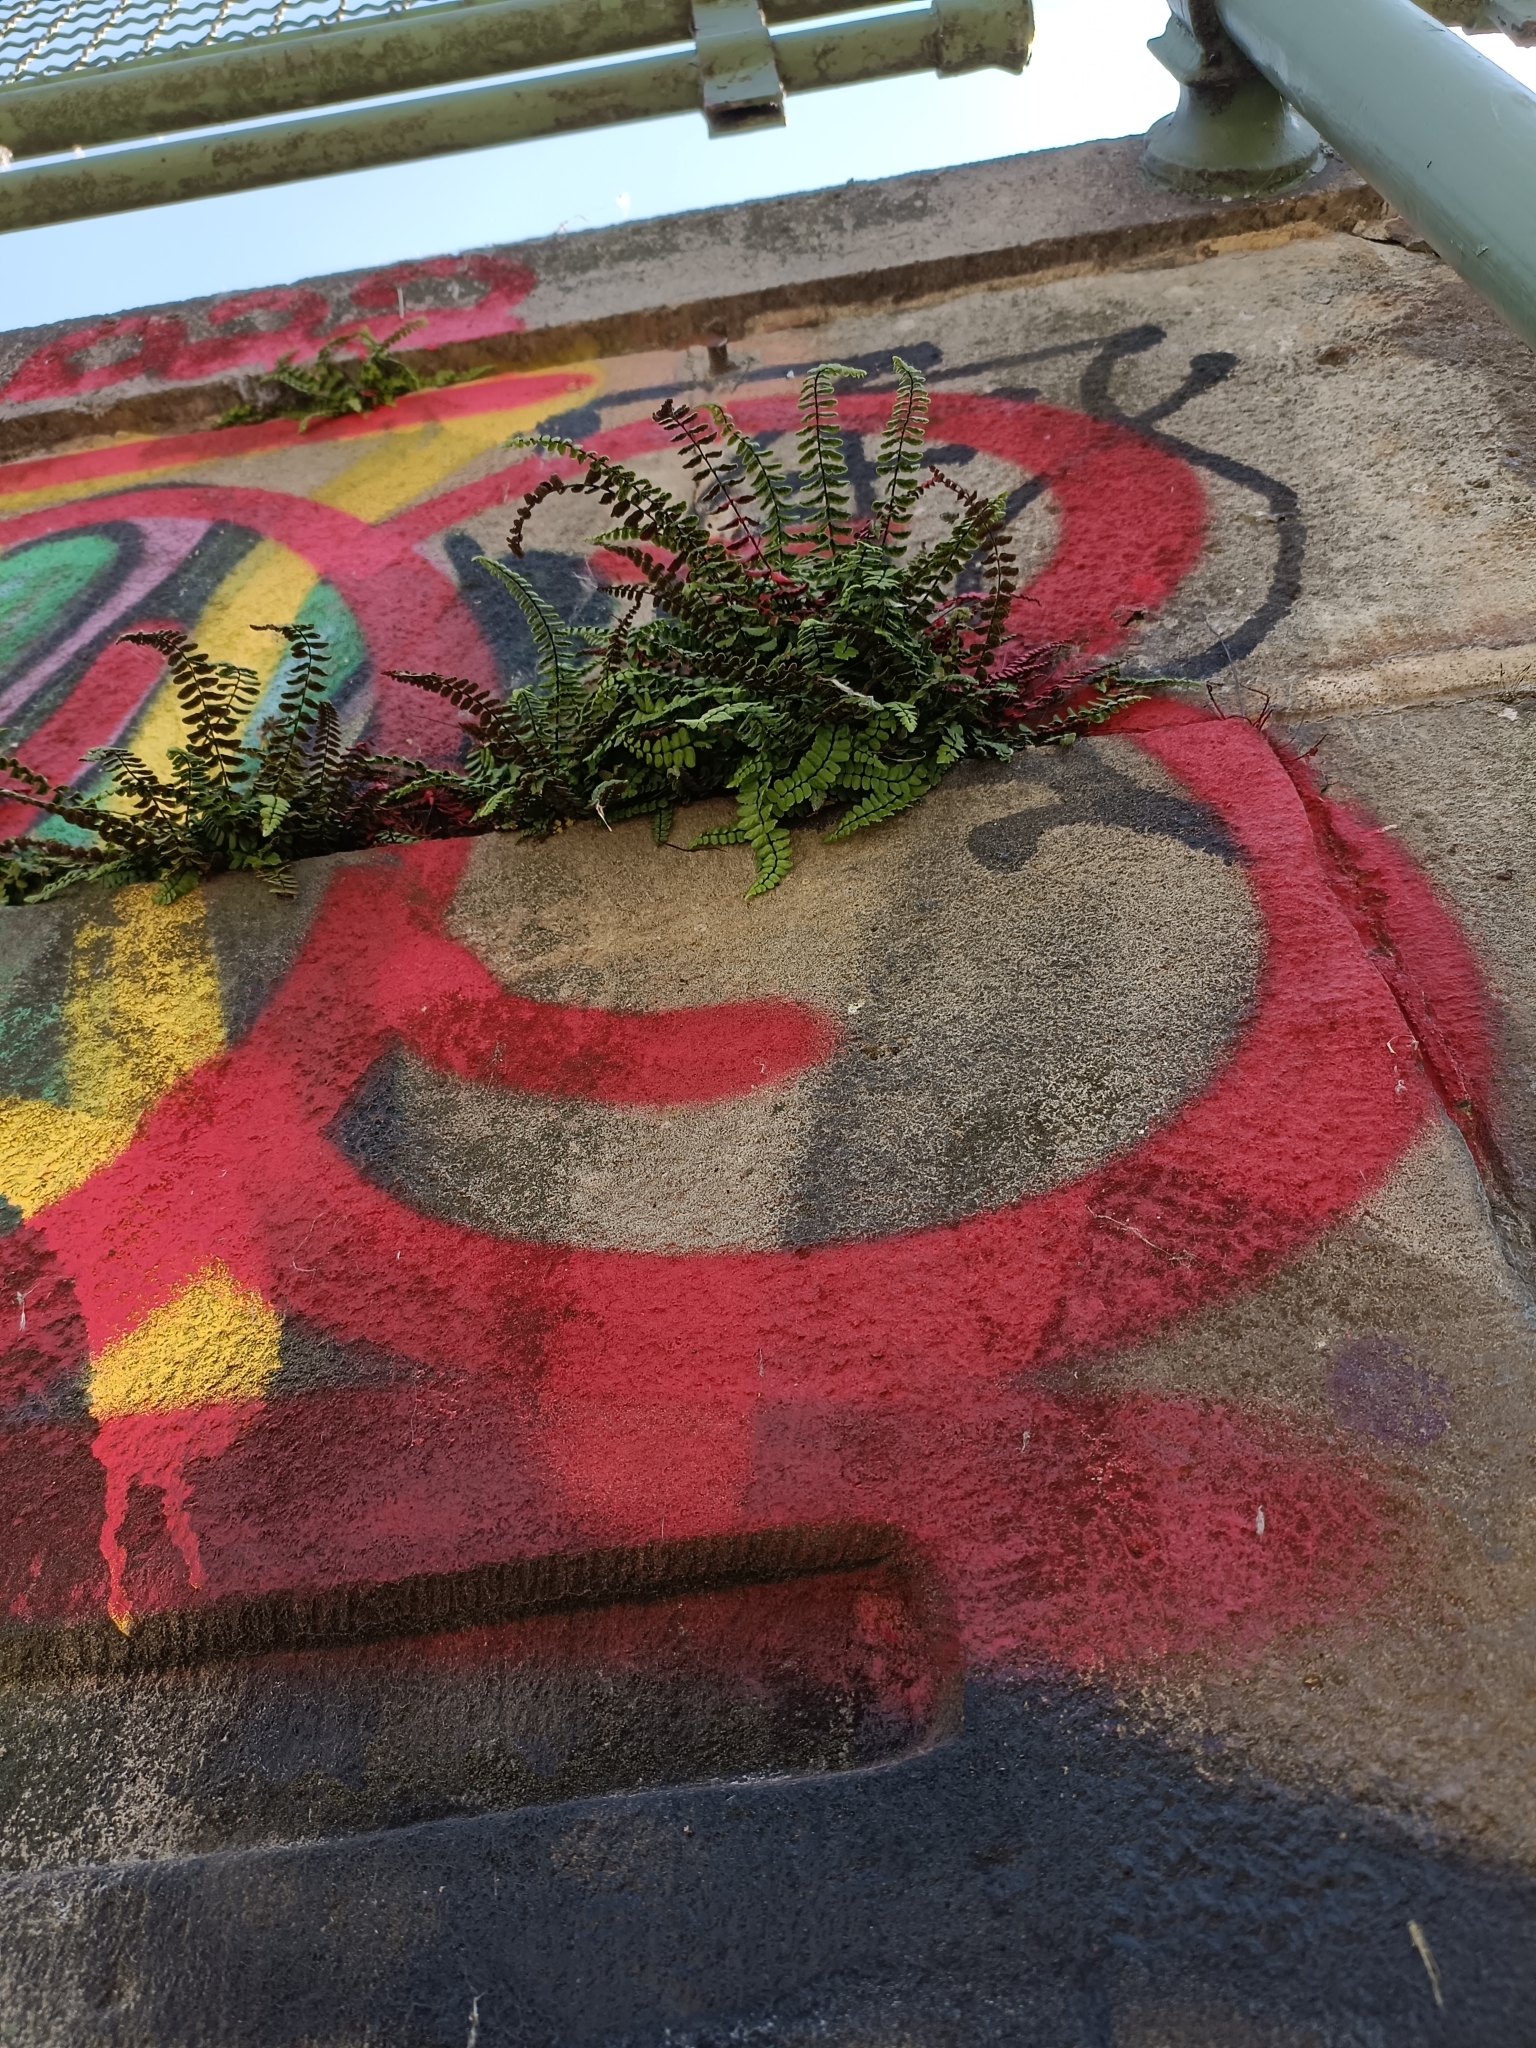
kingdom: Plantae
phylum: Tracheophyta
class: Polypodiopsida
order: Polypodiales
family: Aspleniaceae
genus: Asplenium
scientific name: Asplenium trichomanes
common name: Maidenhair spleenwort
